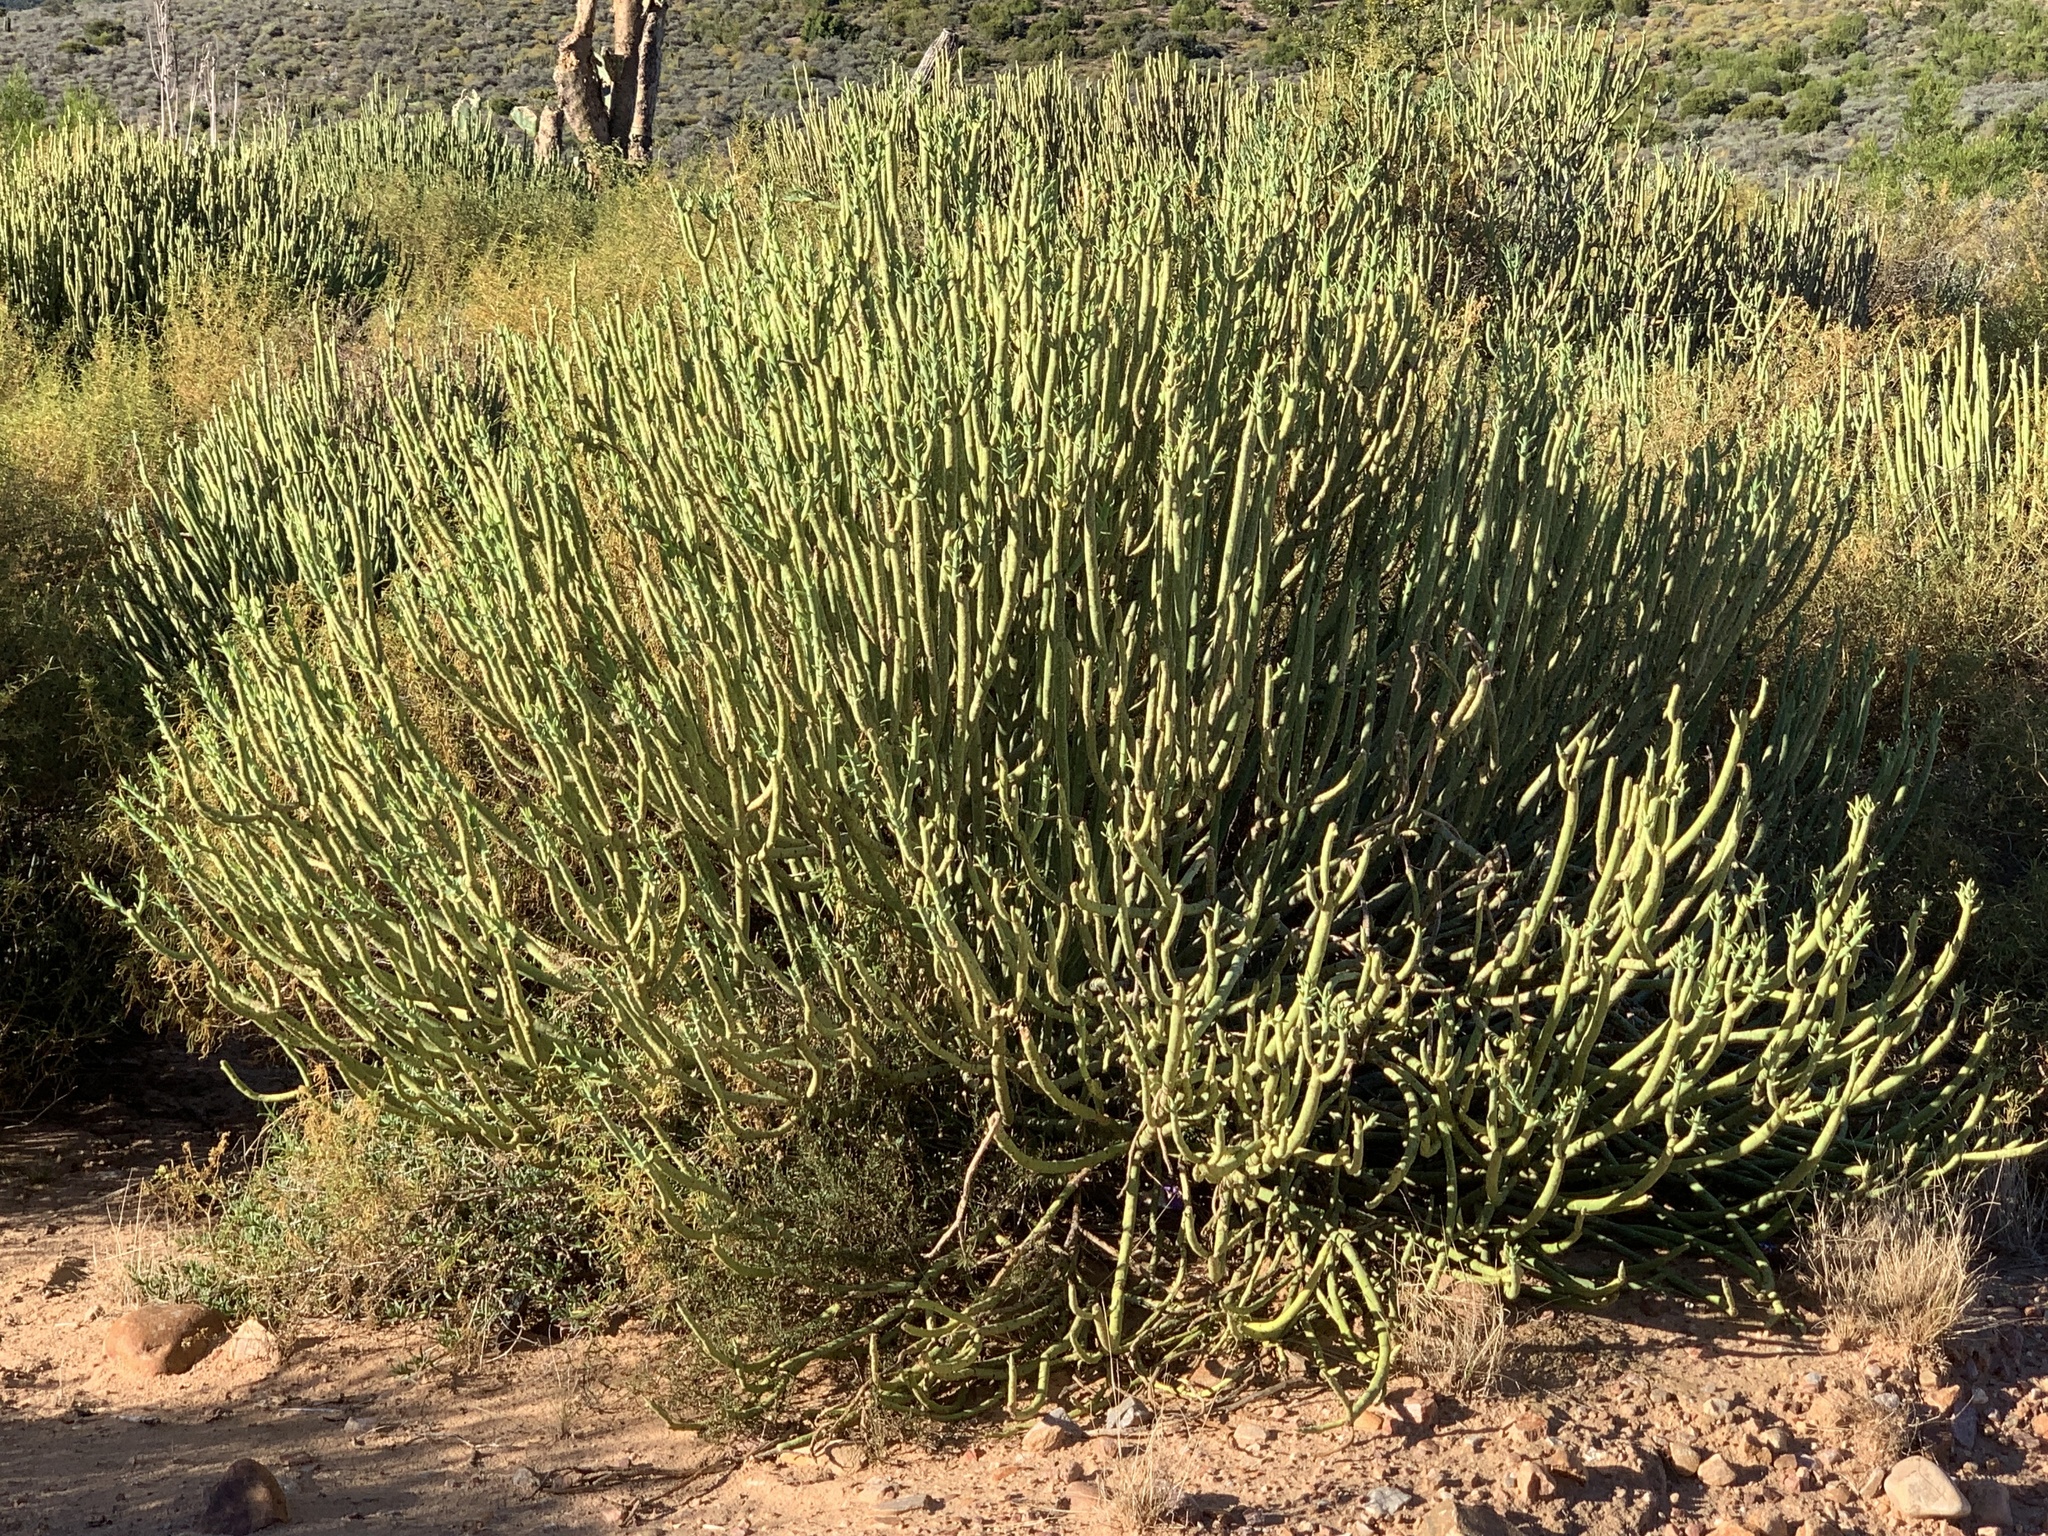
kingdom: Plantae
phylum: Tracheophyta
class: Magnoliopsida
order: Malpighiales
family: Euphorbiaceae
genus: Euphorbia
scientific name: Euphorbia mauritanica
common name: Jackal's-food
